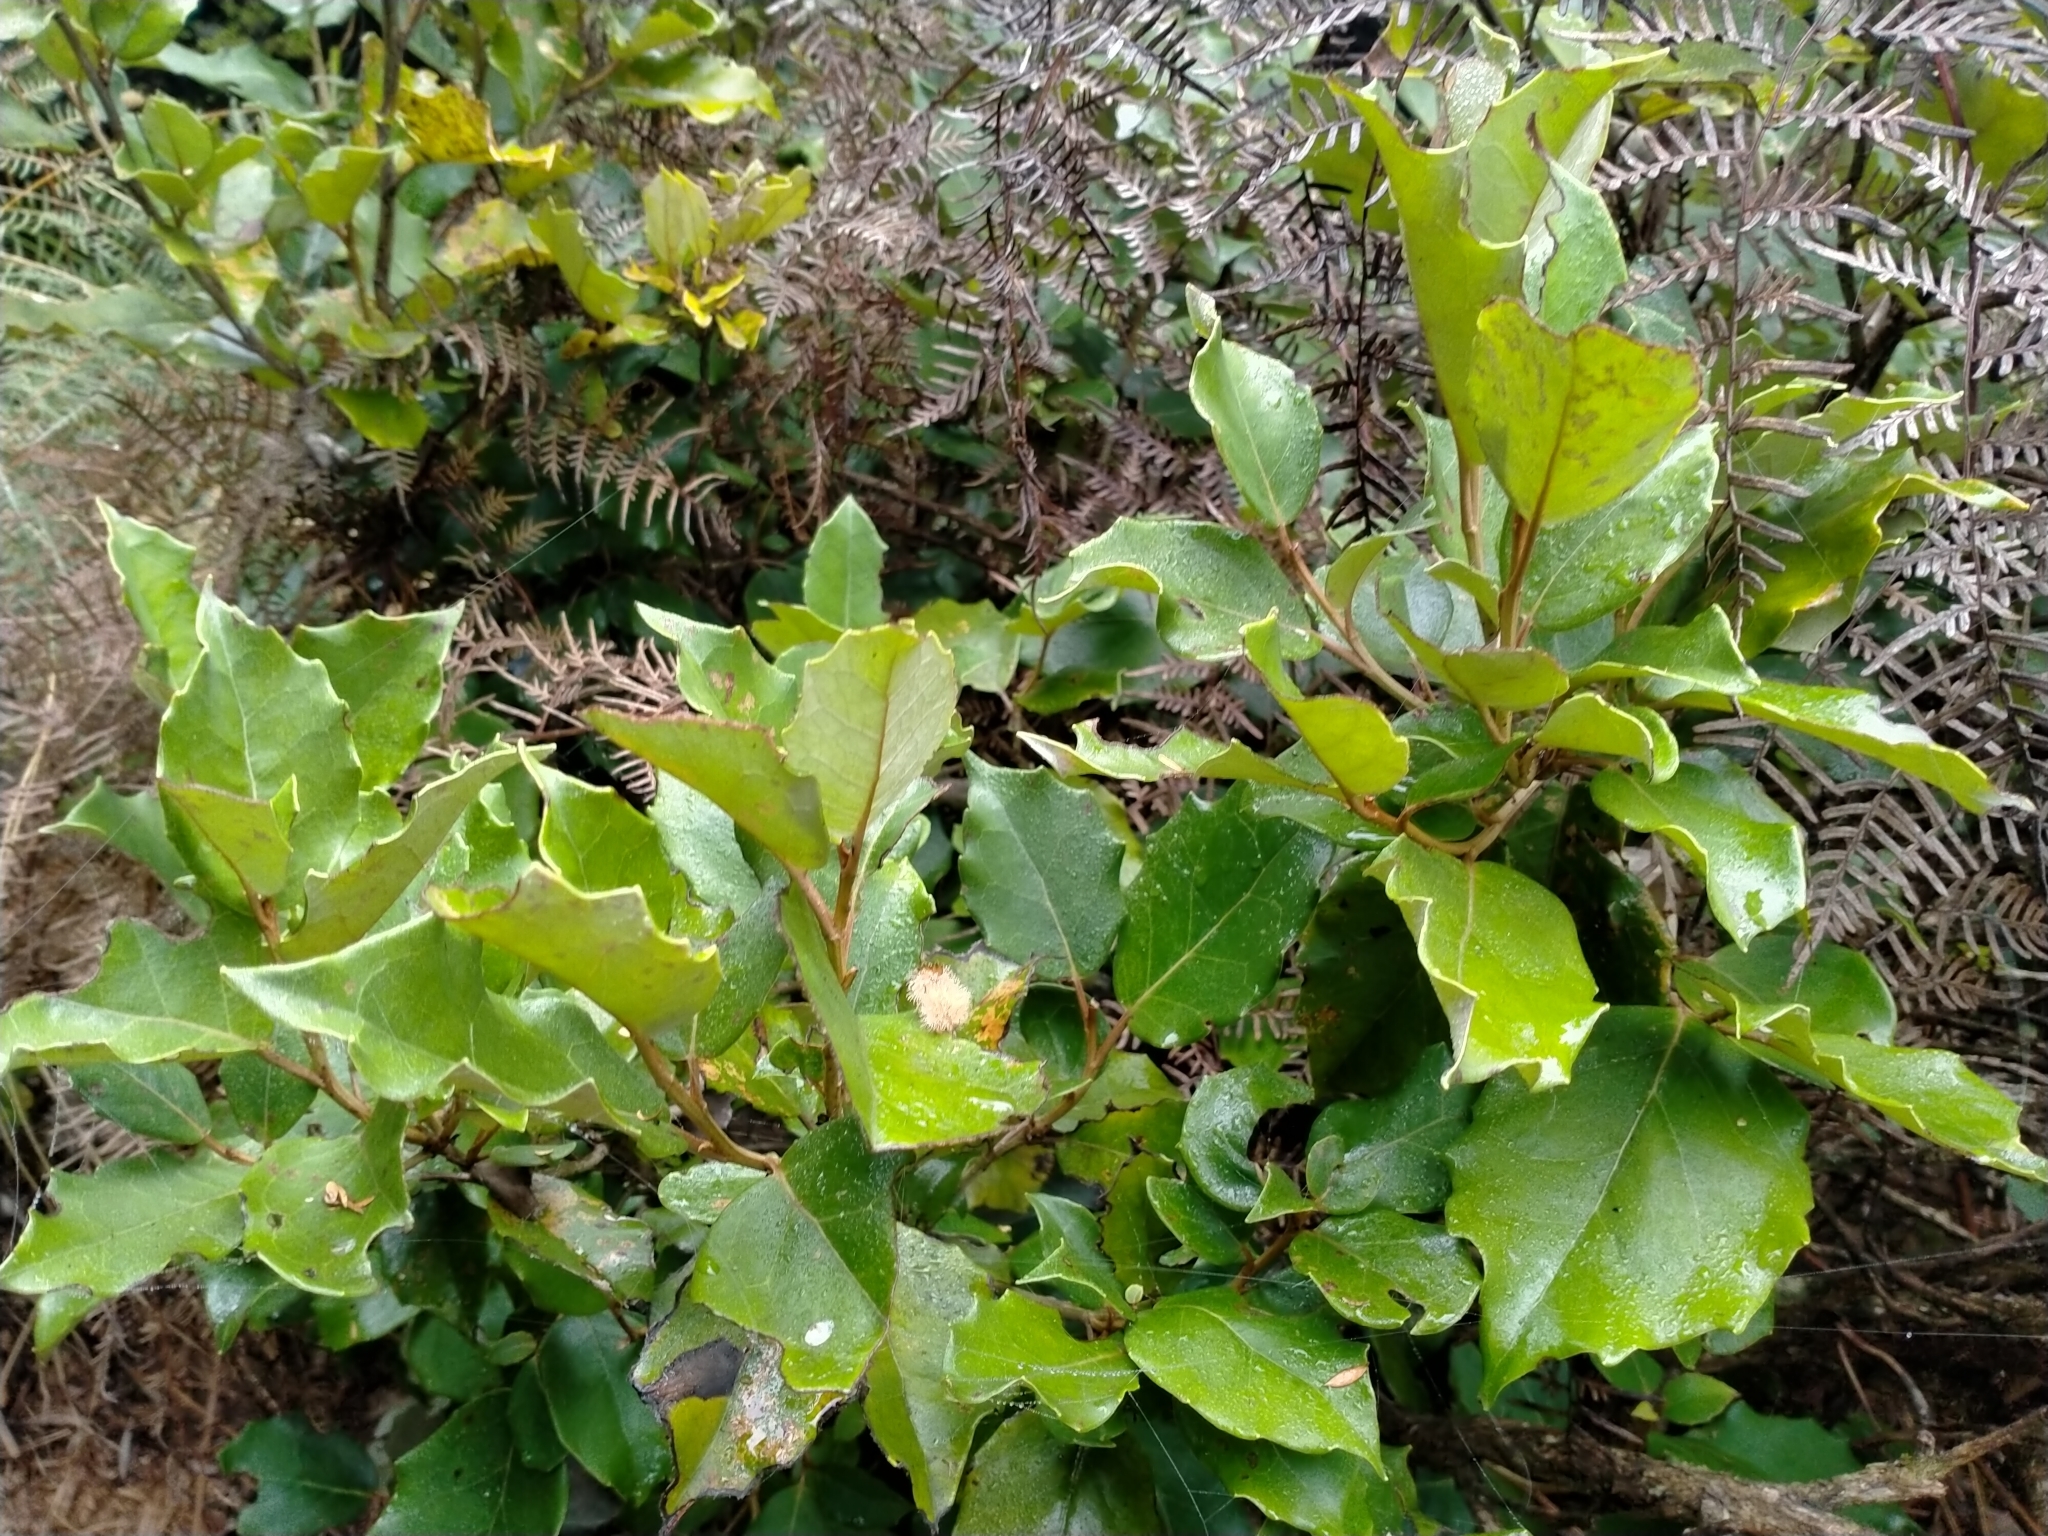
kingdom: Plantae
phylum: Tracheophyta
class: Magnoliopsida
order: Asterales
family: Asteraceae
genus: Olearia
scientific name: Olearia arborescens
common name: Glossy tree daisy
